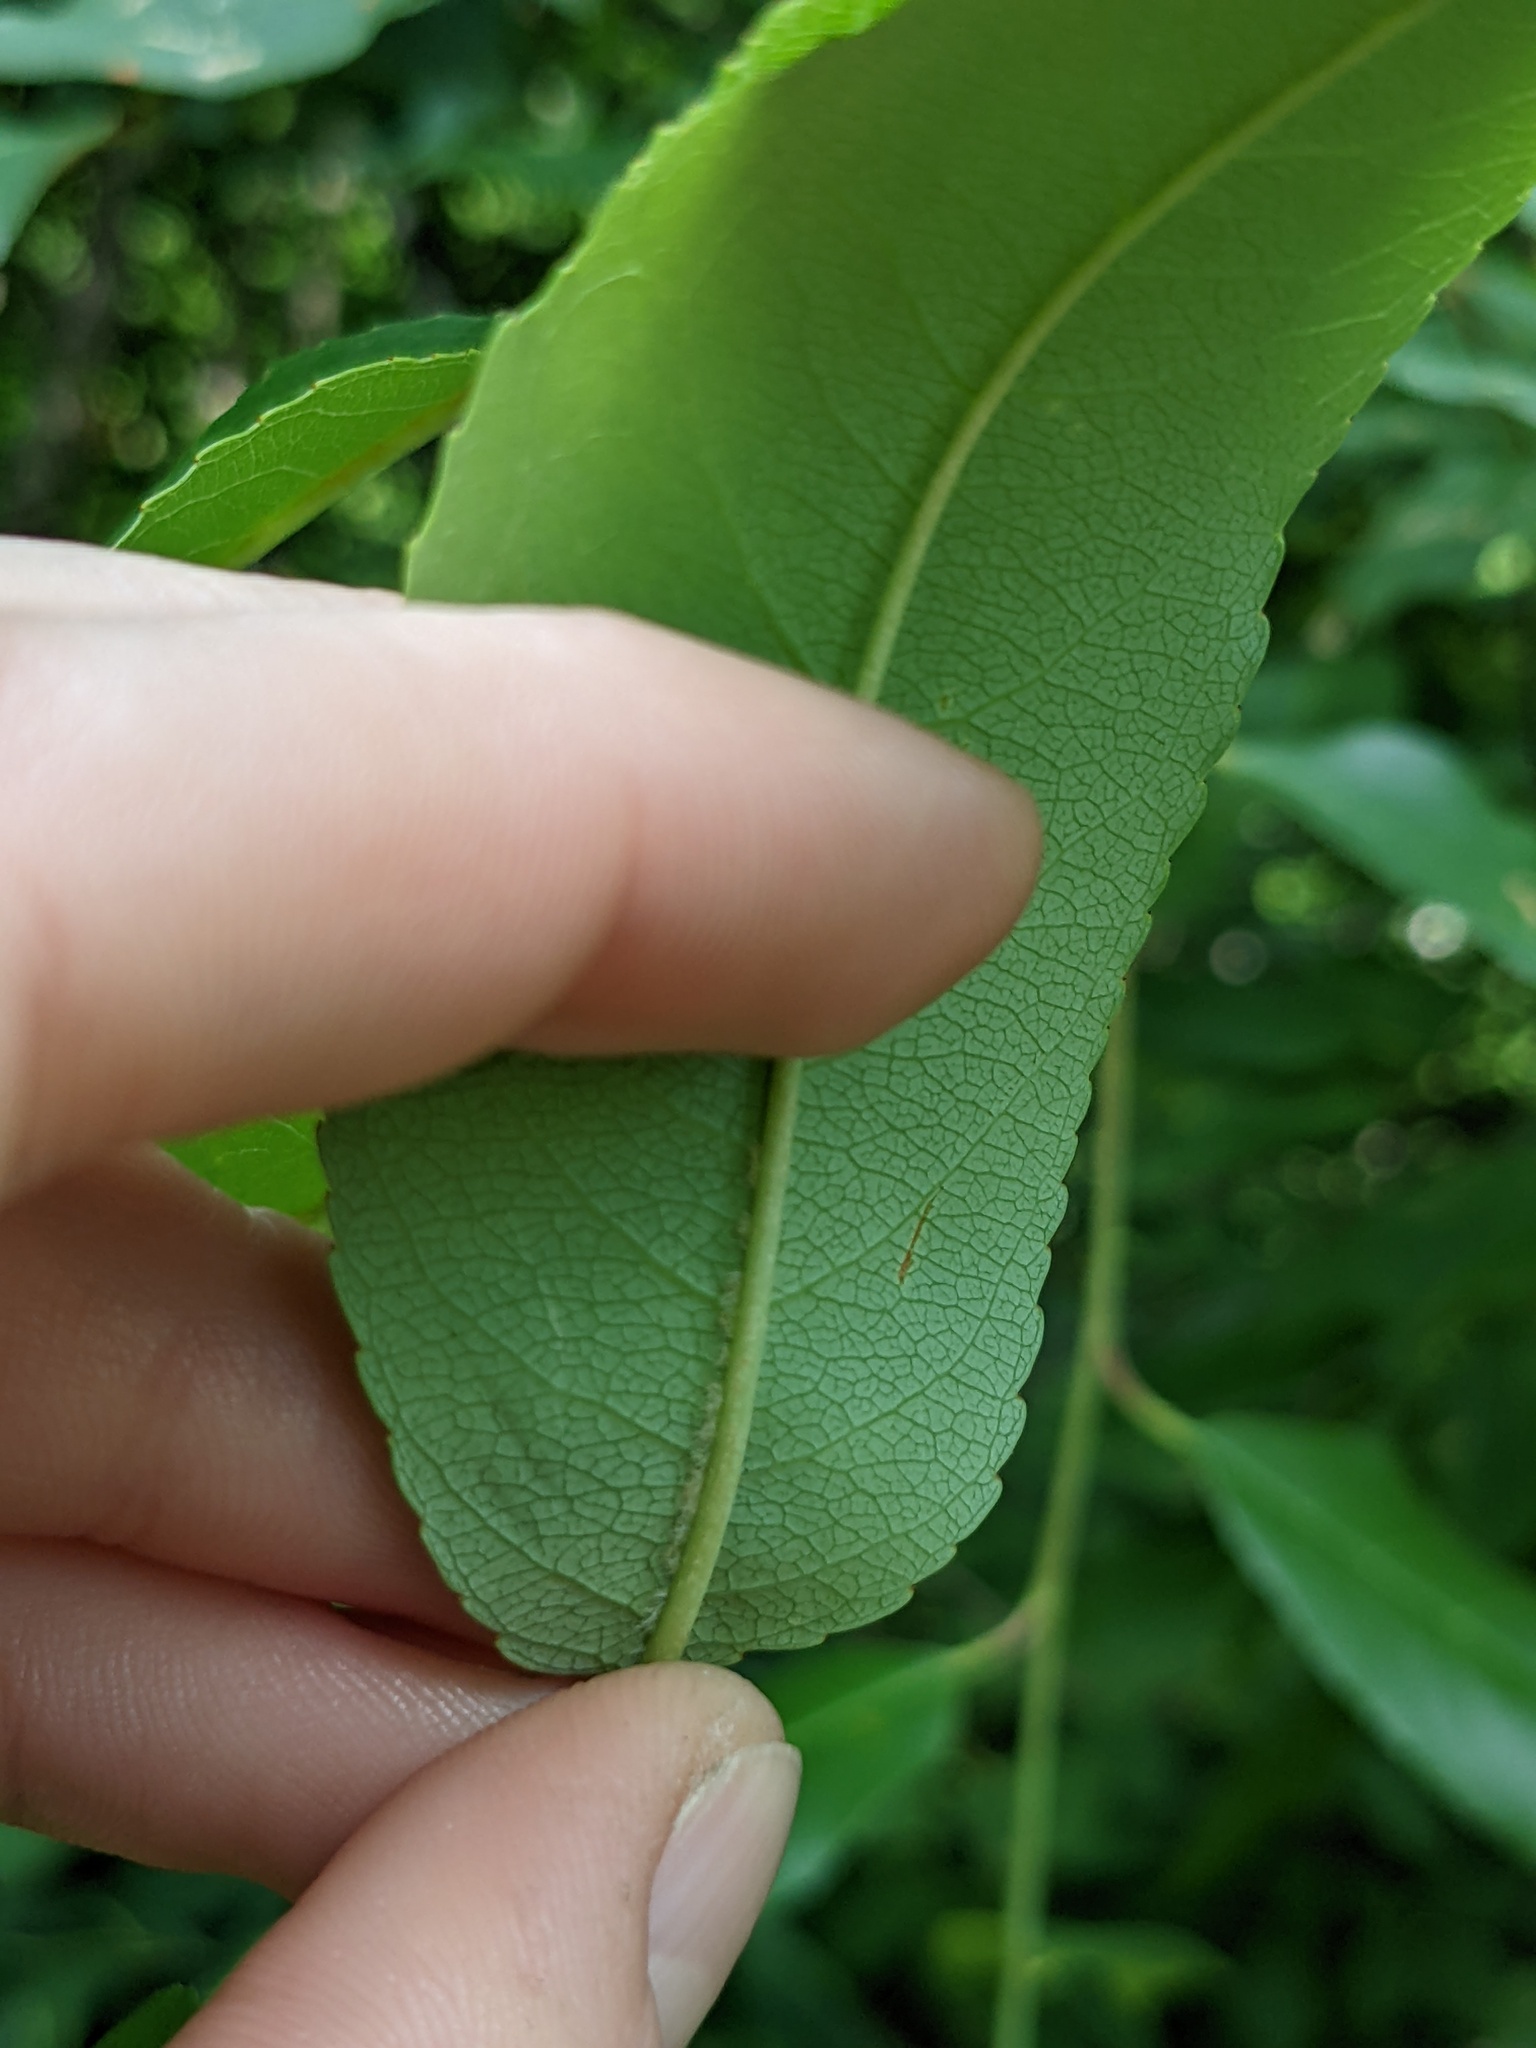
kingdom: Plantae
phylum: Tracheophyta
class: Magnoliopsida
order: Rosales
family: Rosaceae
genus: Prunus
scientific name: Prunus serotina
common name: Black cherry
